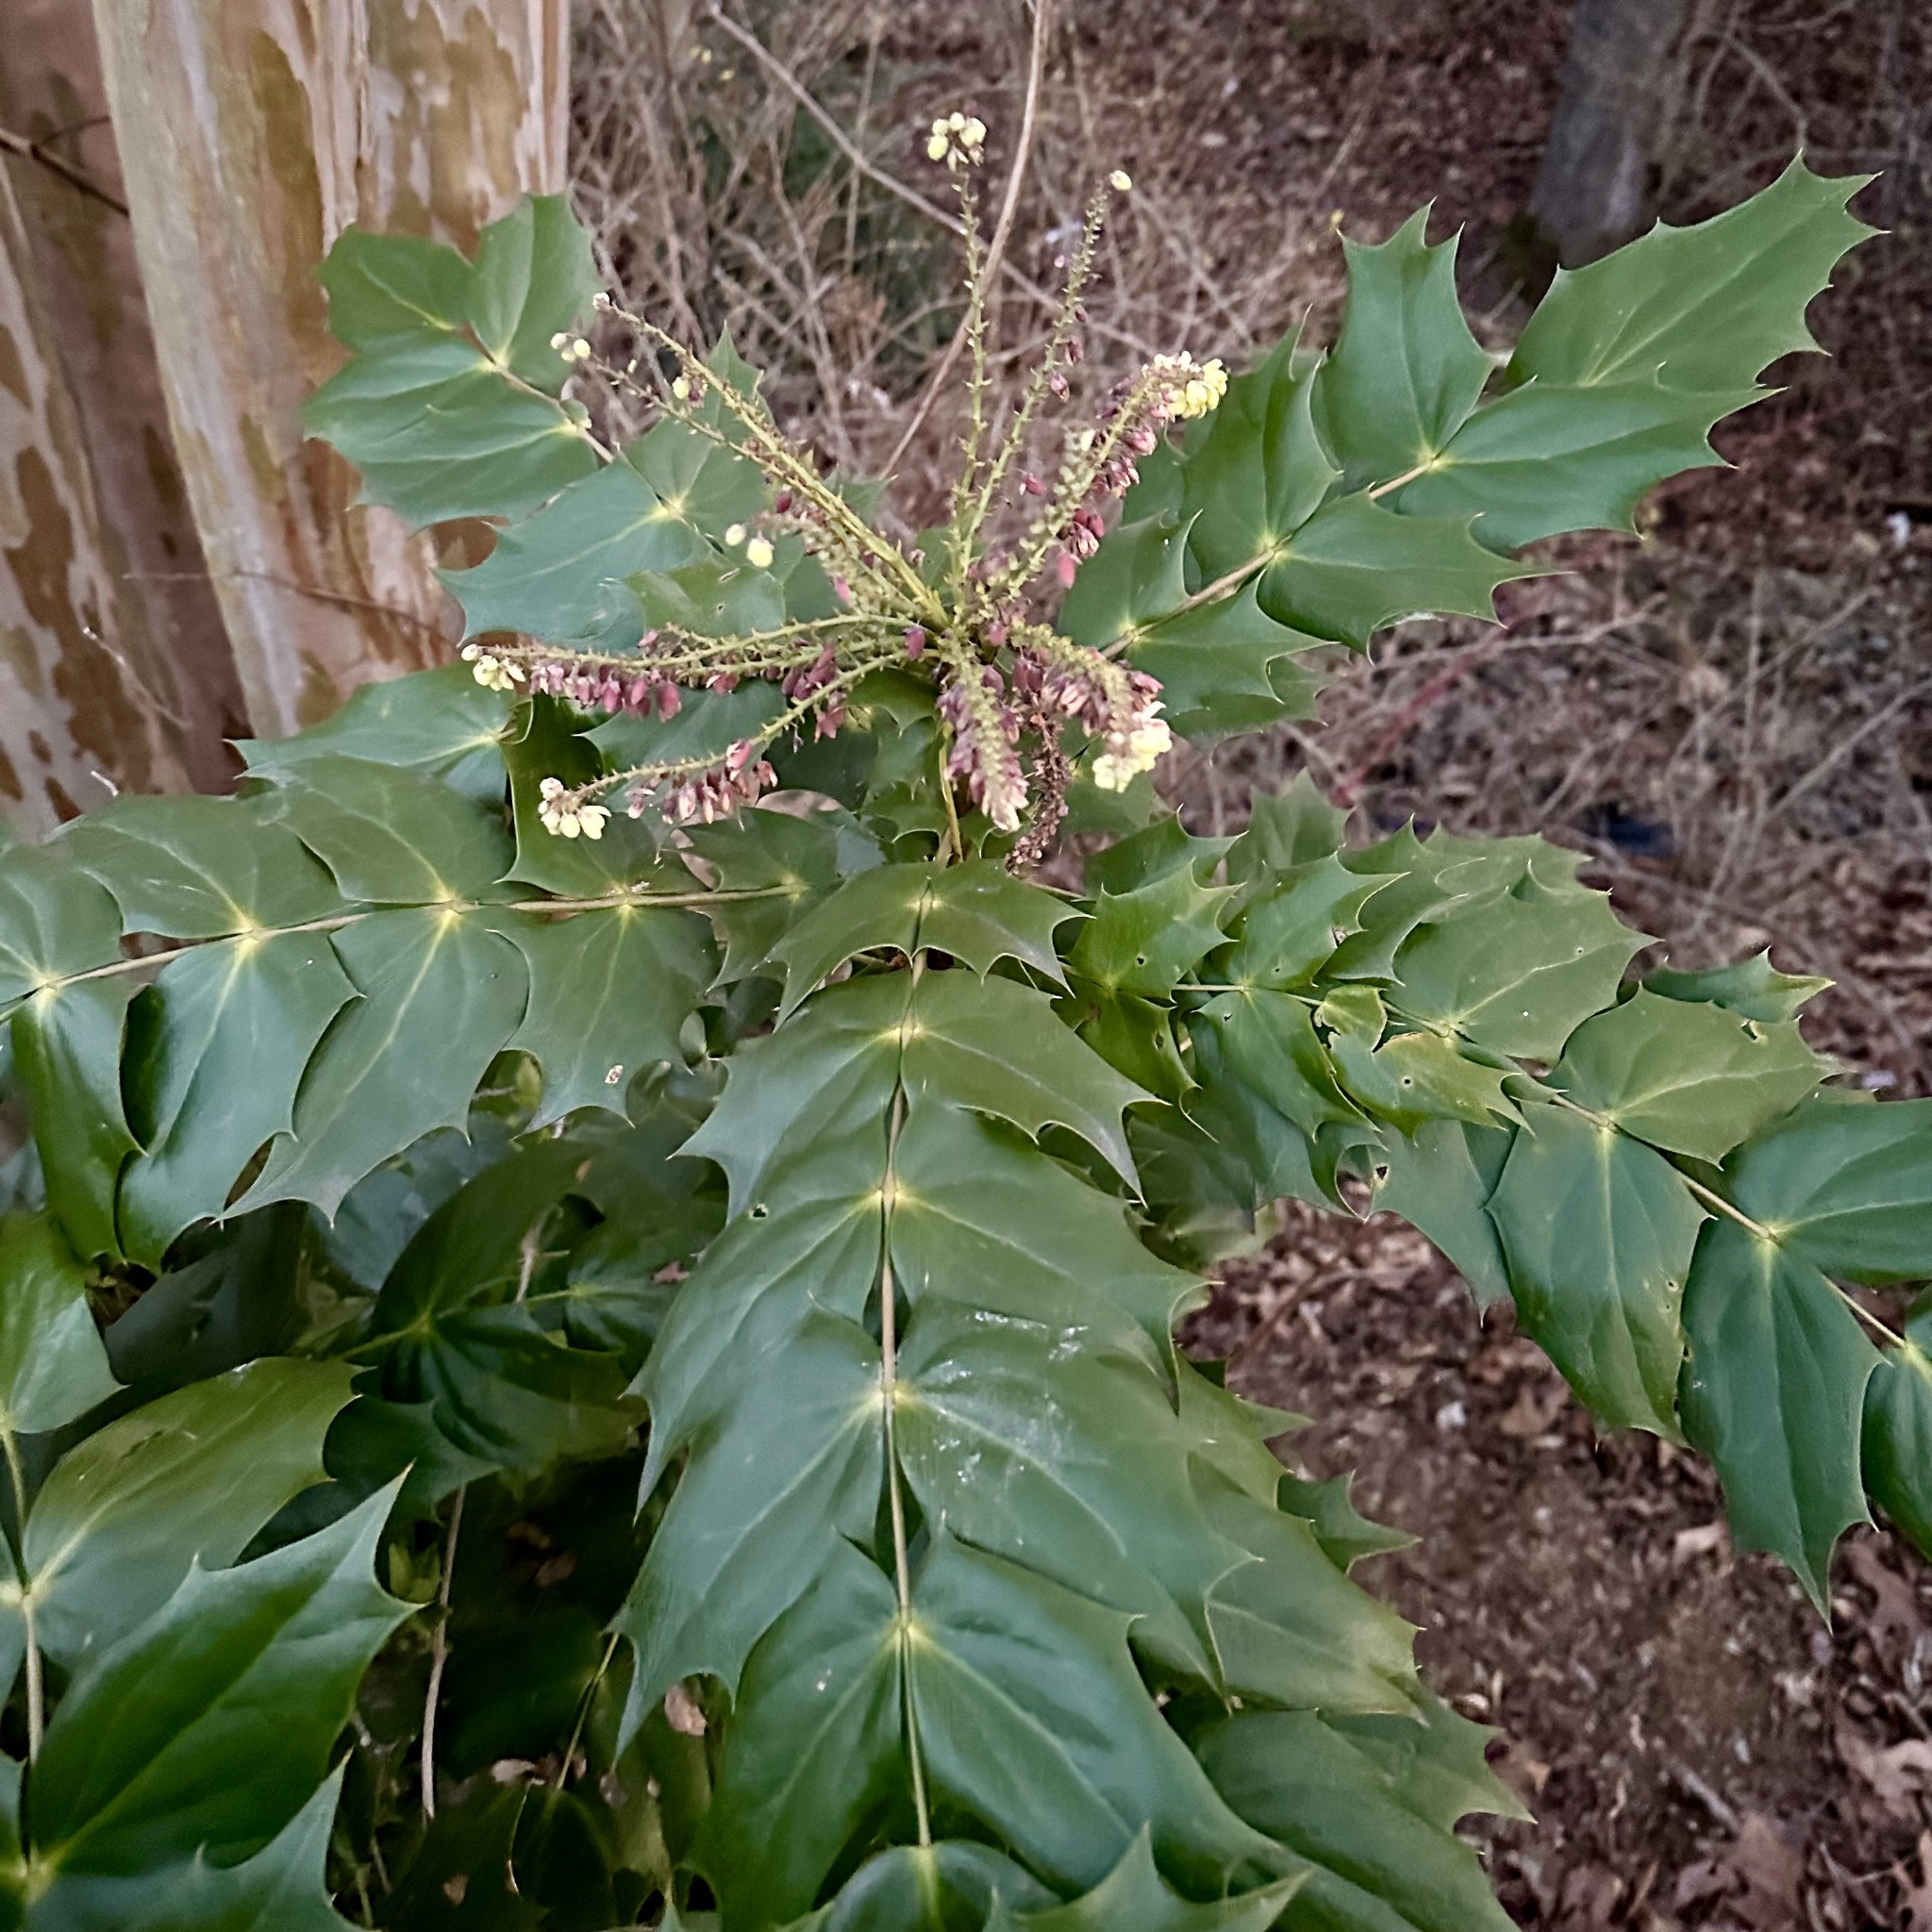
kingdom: Plantae
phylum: Tracheophyta
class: Magnoliopsida
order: Ranunculales
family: Berberidaceae
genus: Mahonia
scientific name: Mahonia bealei
